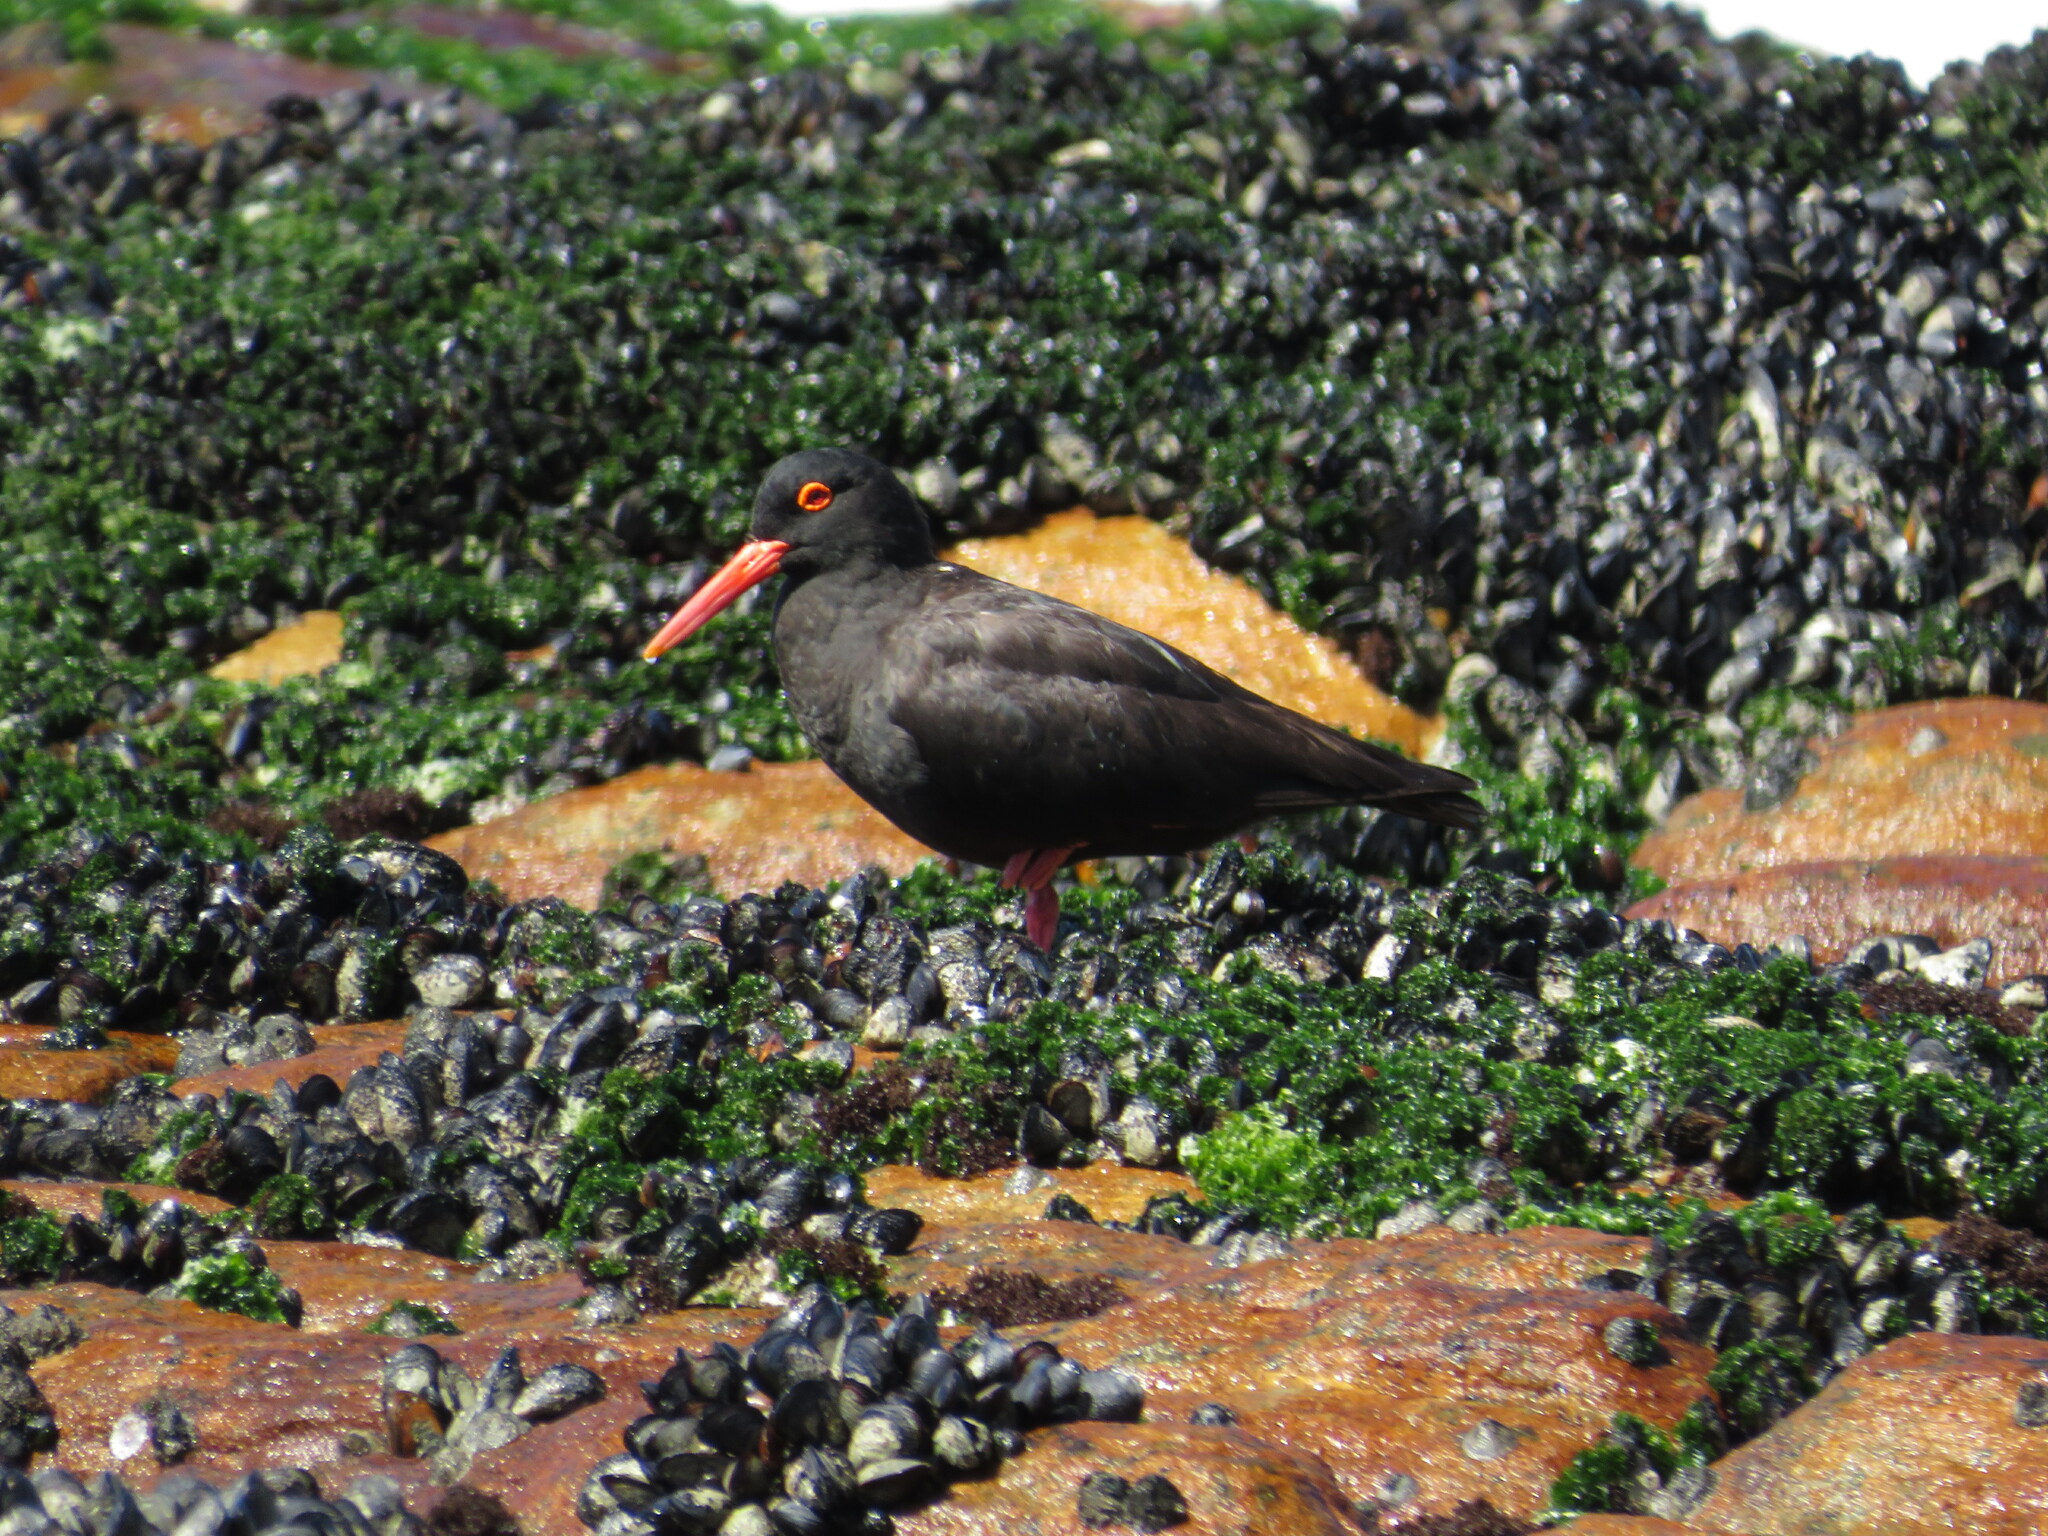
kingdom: Animalia
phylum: Mollusca
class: Bivalvia
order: Mytilida
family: Mytilidae
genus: Mytilus
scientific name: Mytilus galloprovincialis
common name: Mediterranean mussel
